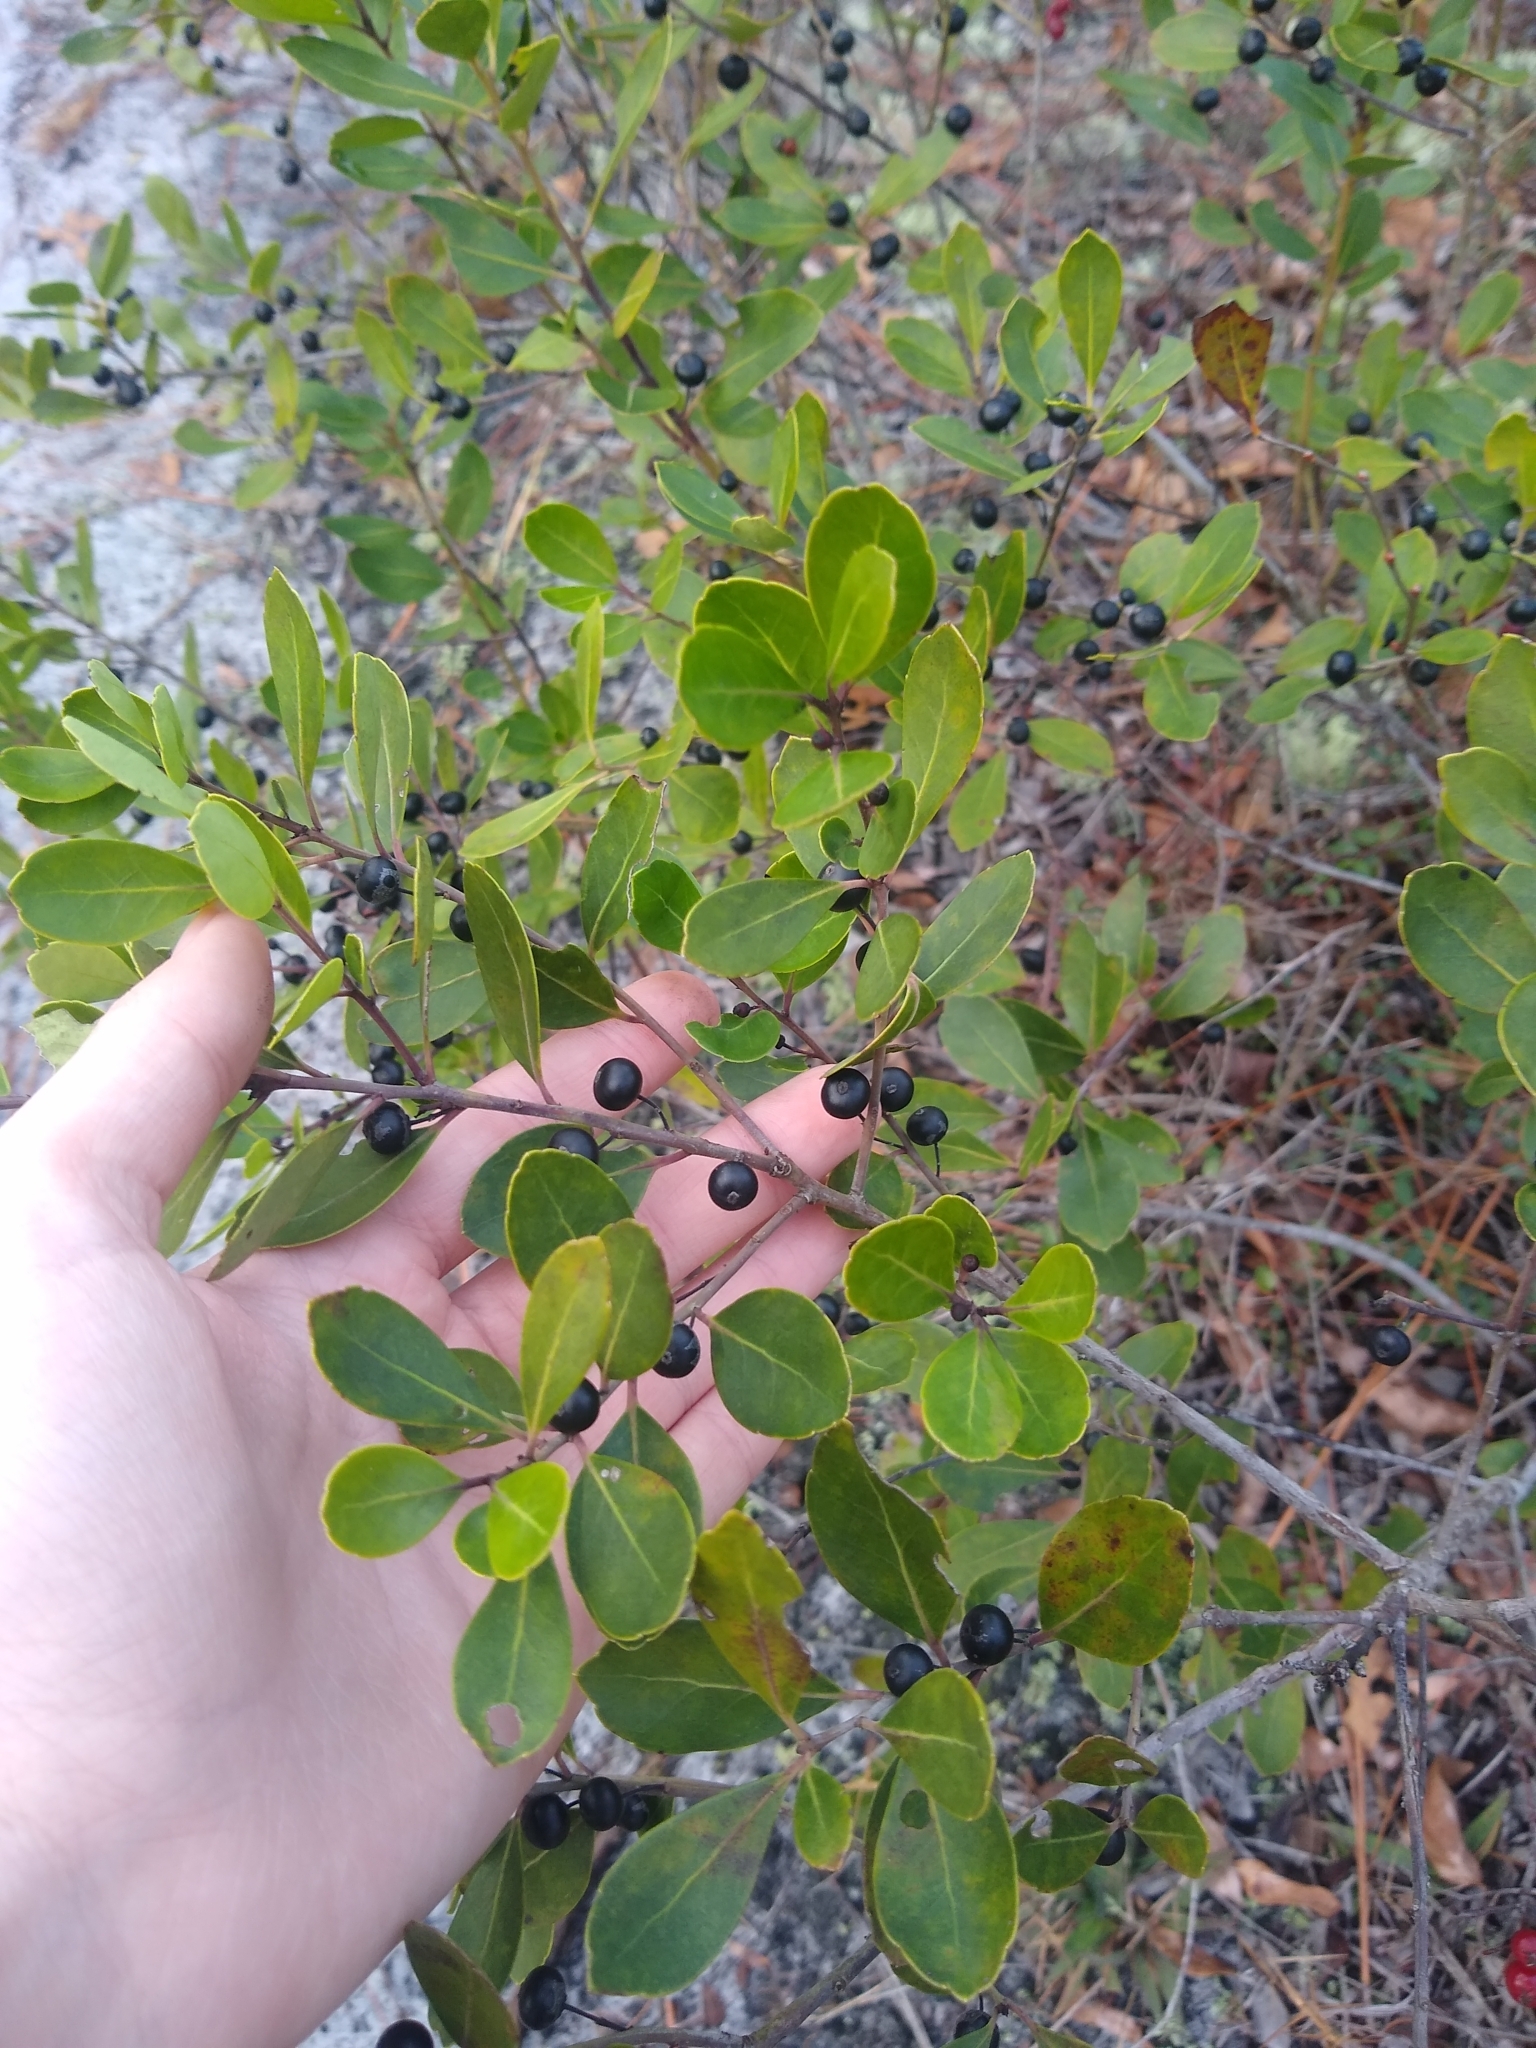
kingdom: Plantae
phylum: Tracheophyta
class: Magnoliopsida
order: Aquifoliales
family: Aquifoliaceae
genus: Ilex
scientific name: Ilex glabra
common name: Bitter gallberry
